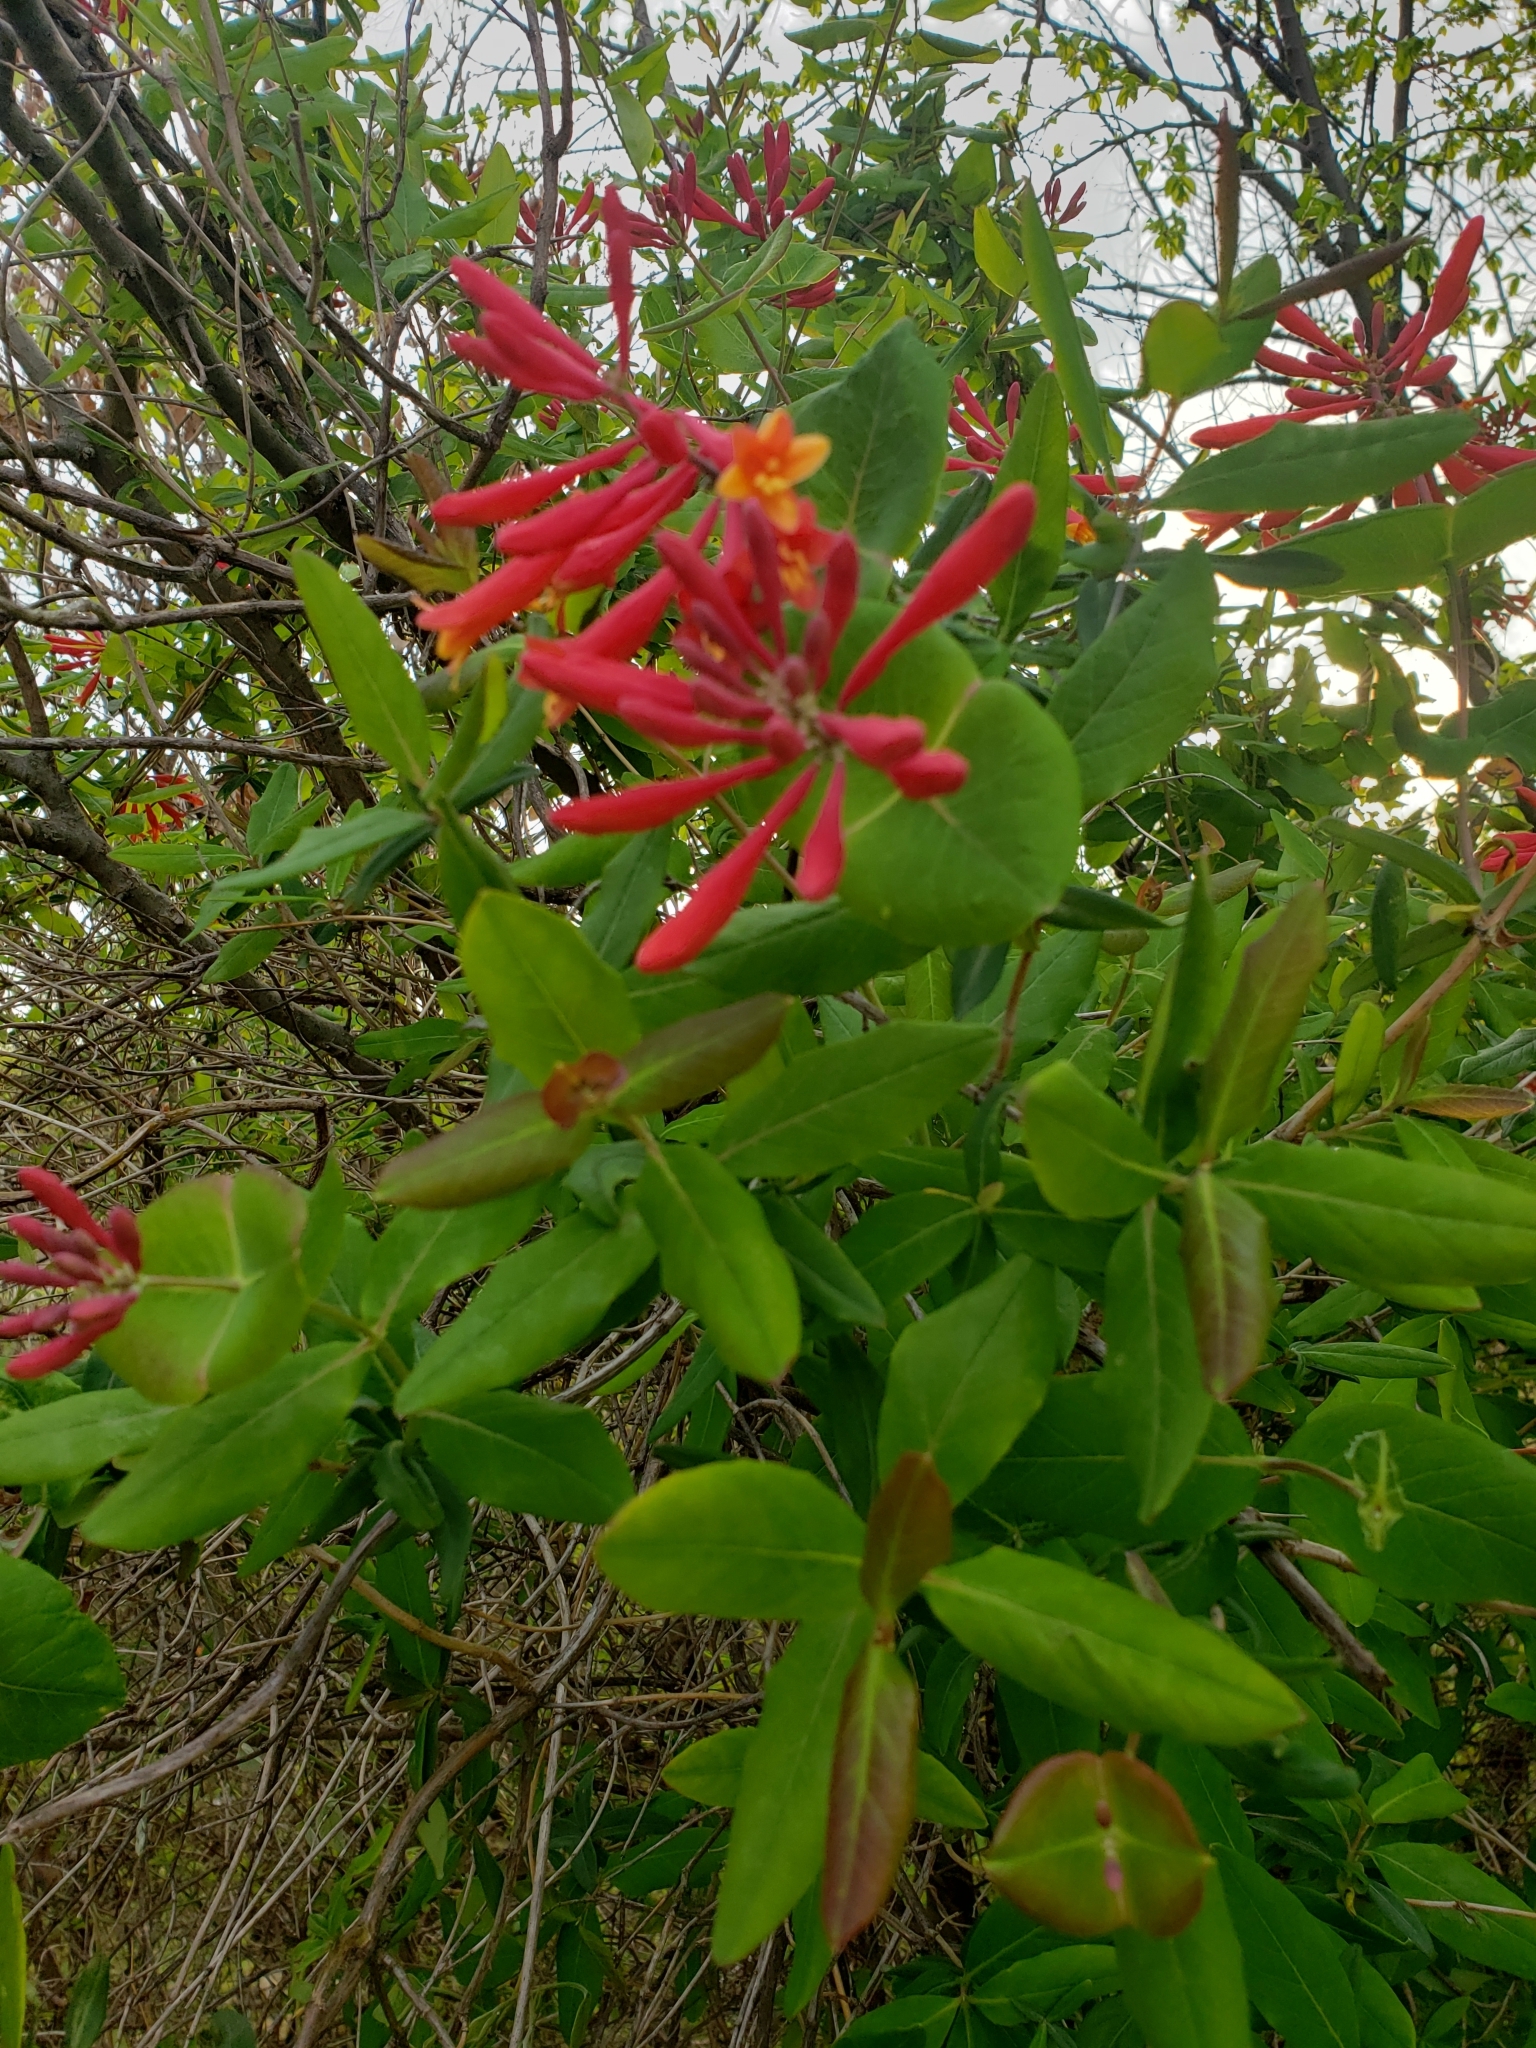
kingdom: Plantae
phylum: Tracheophyta
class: Magnoliopsida
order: Dipsacales
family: Caprifoliaceae
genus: Lonicera
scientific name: Lonicera sempervirens
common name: Coral honeysuckle
